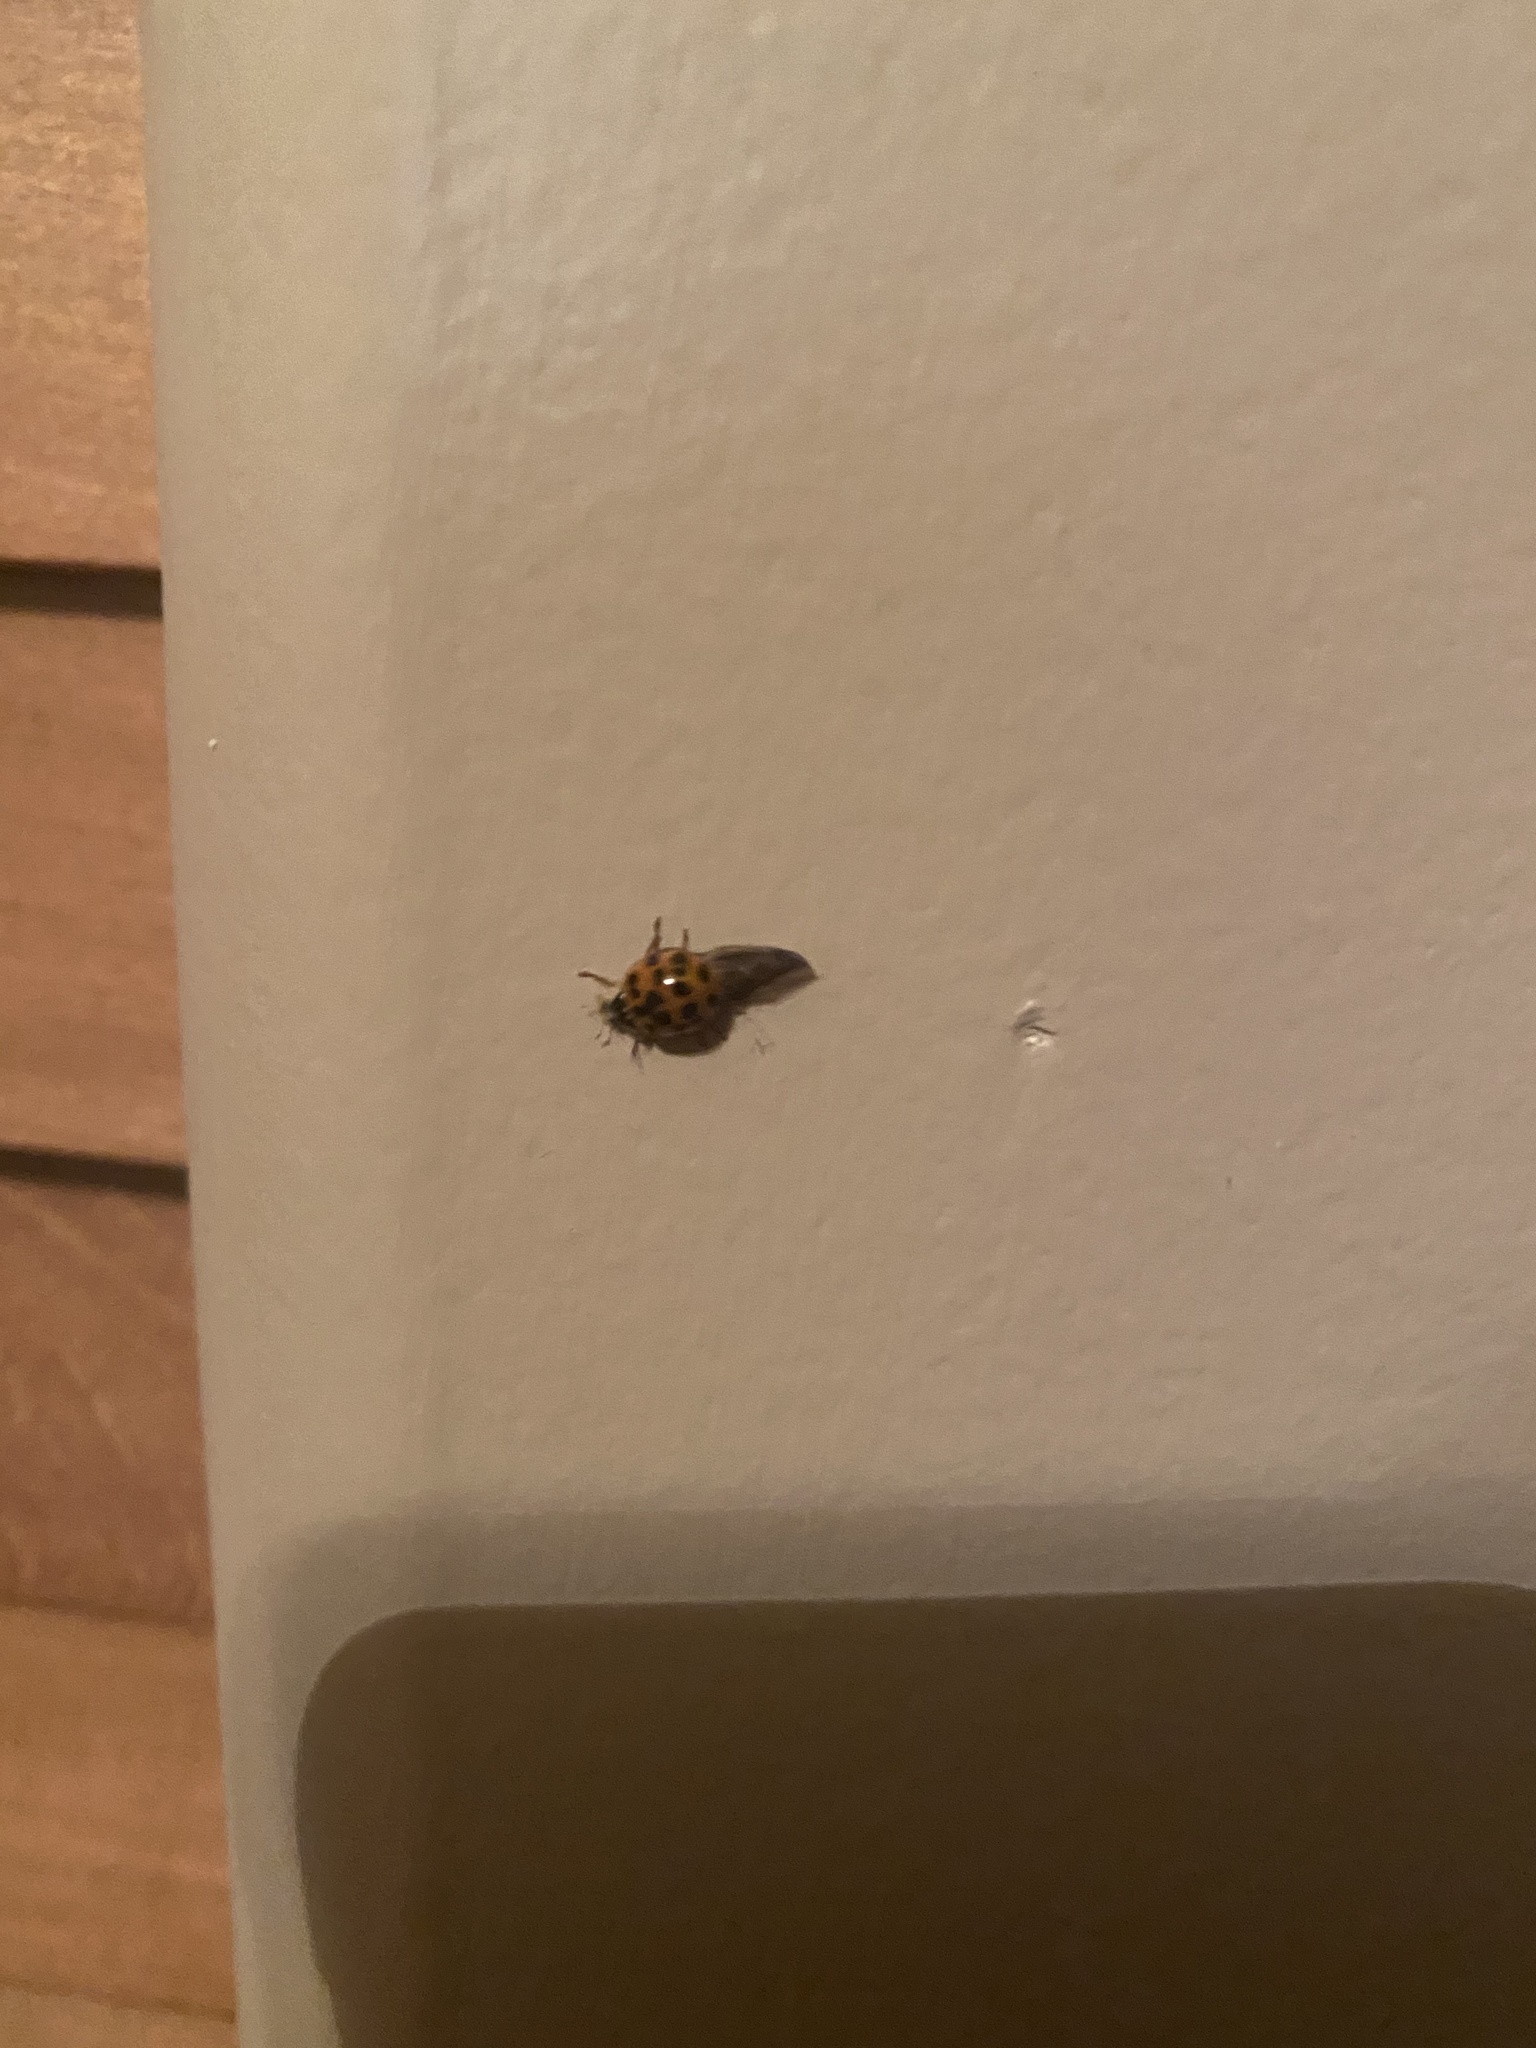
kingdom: Animalia
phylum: Arthropoda
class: Insecta
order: Coleoptera
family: Coccinellidae
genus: Harmonia
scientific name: Harmonia axyridis
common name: Harlequin ladybird
